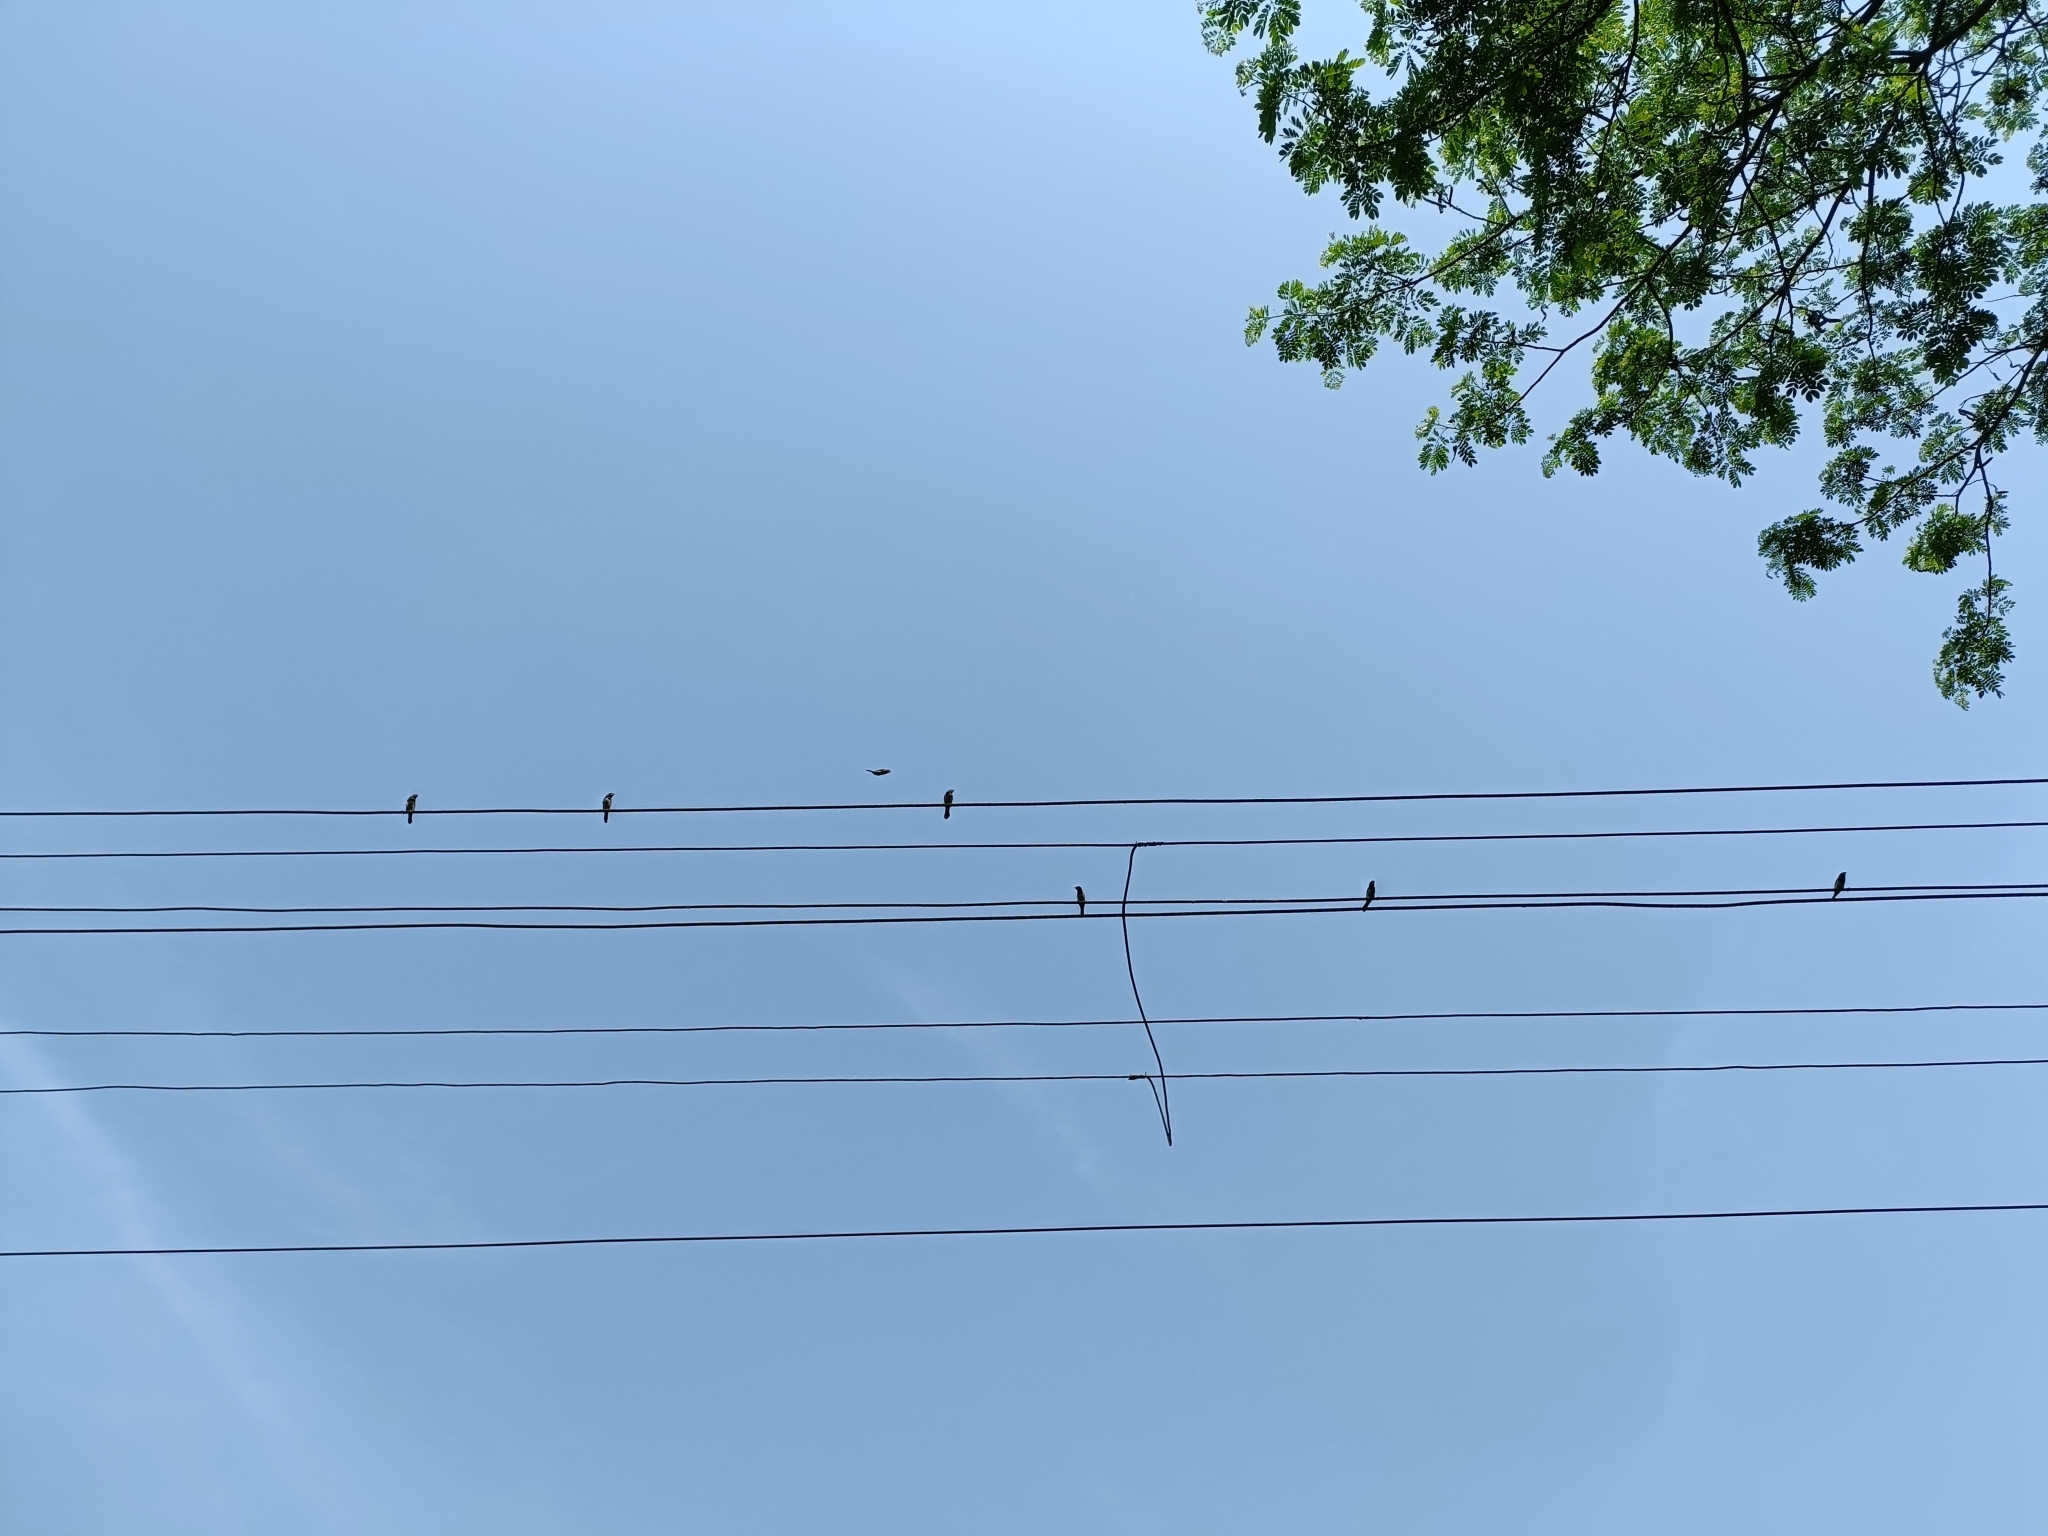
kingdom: Animalia
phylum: Chordata
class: Aves
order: Passeriformes
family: Estrildidae
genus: Lonchura
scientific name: Lonchura striata
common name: White-rumped munia
